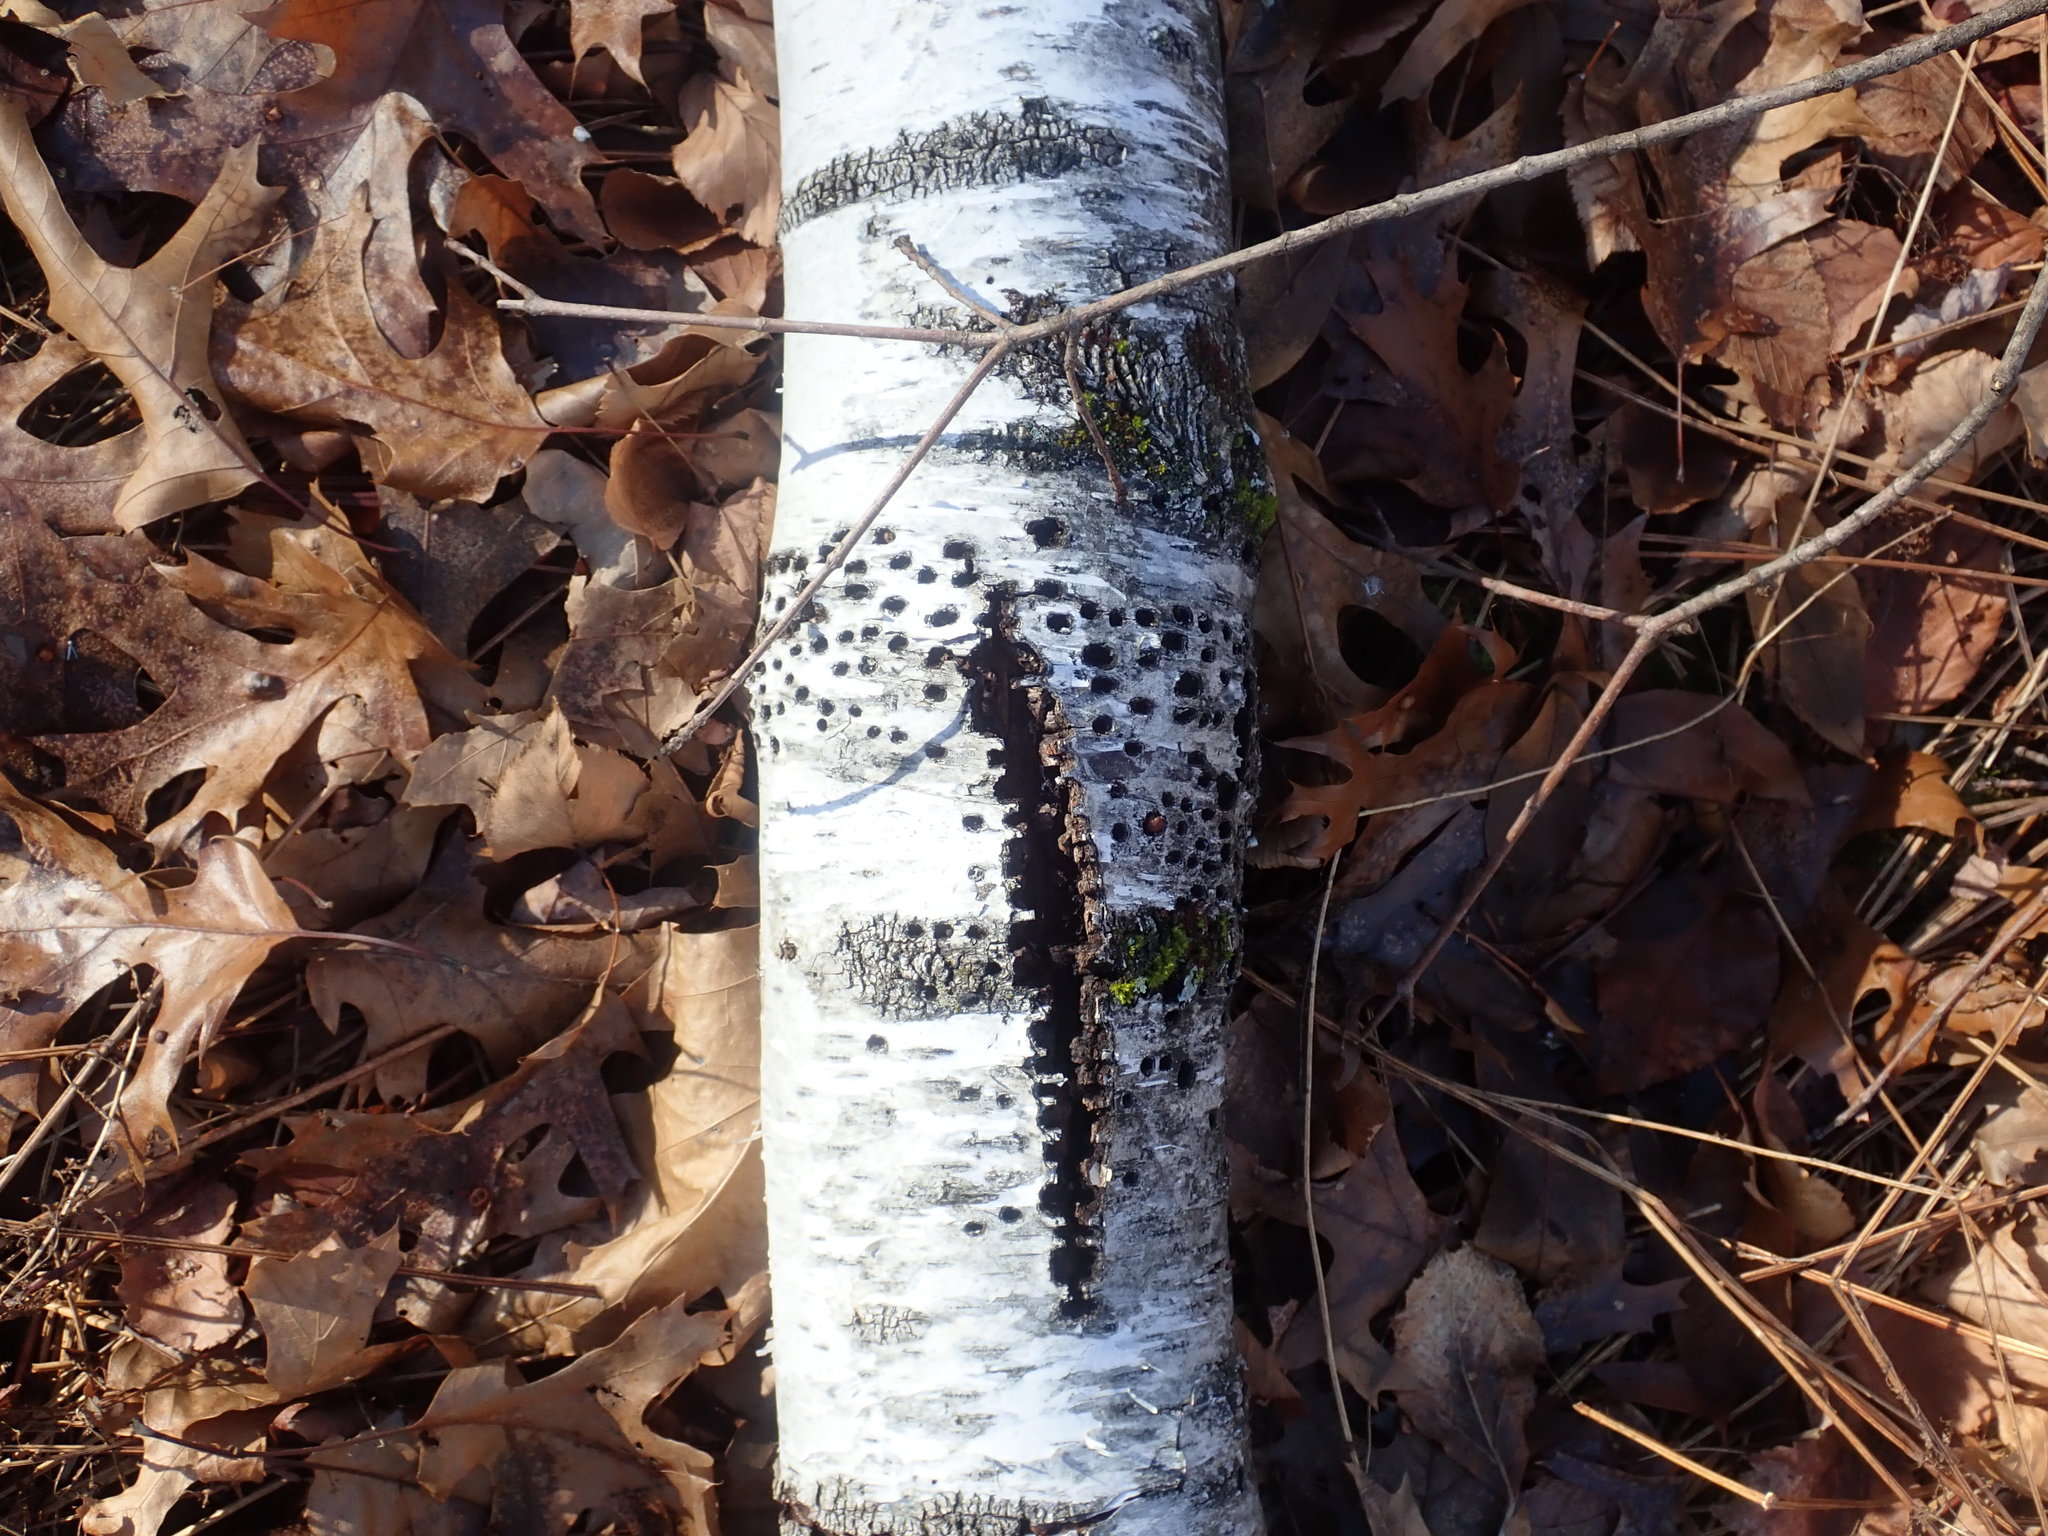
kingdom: Animalia
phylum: Chordata
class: Aves
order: Piciformes
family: Picidae
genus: Sphyrapicus
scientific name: Sphyrapicus varius
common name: Yellow-bellied sapsucker
